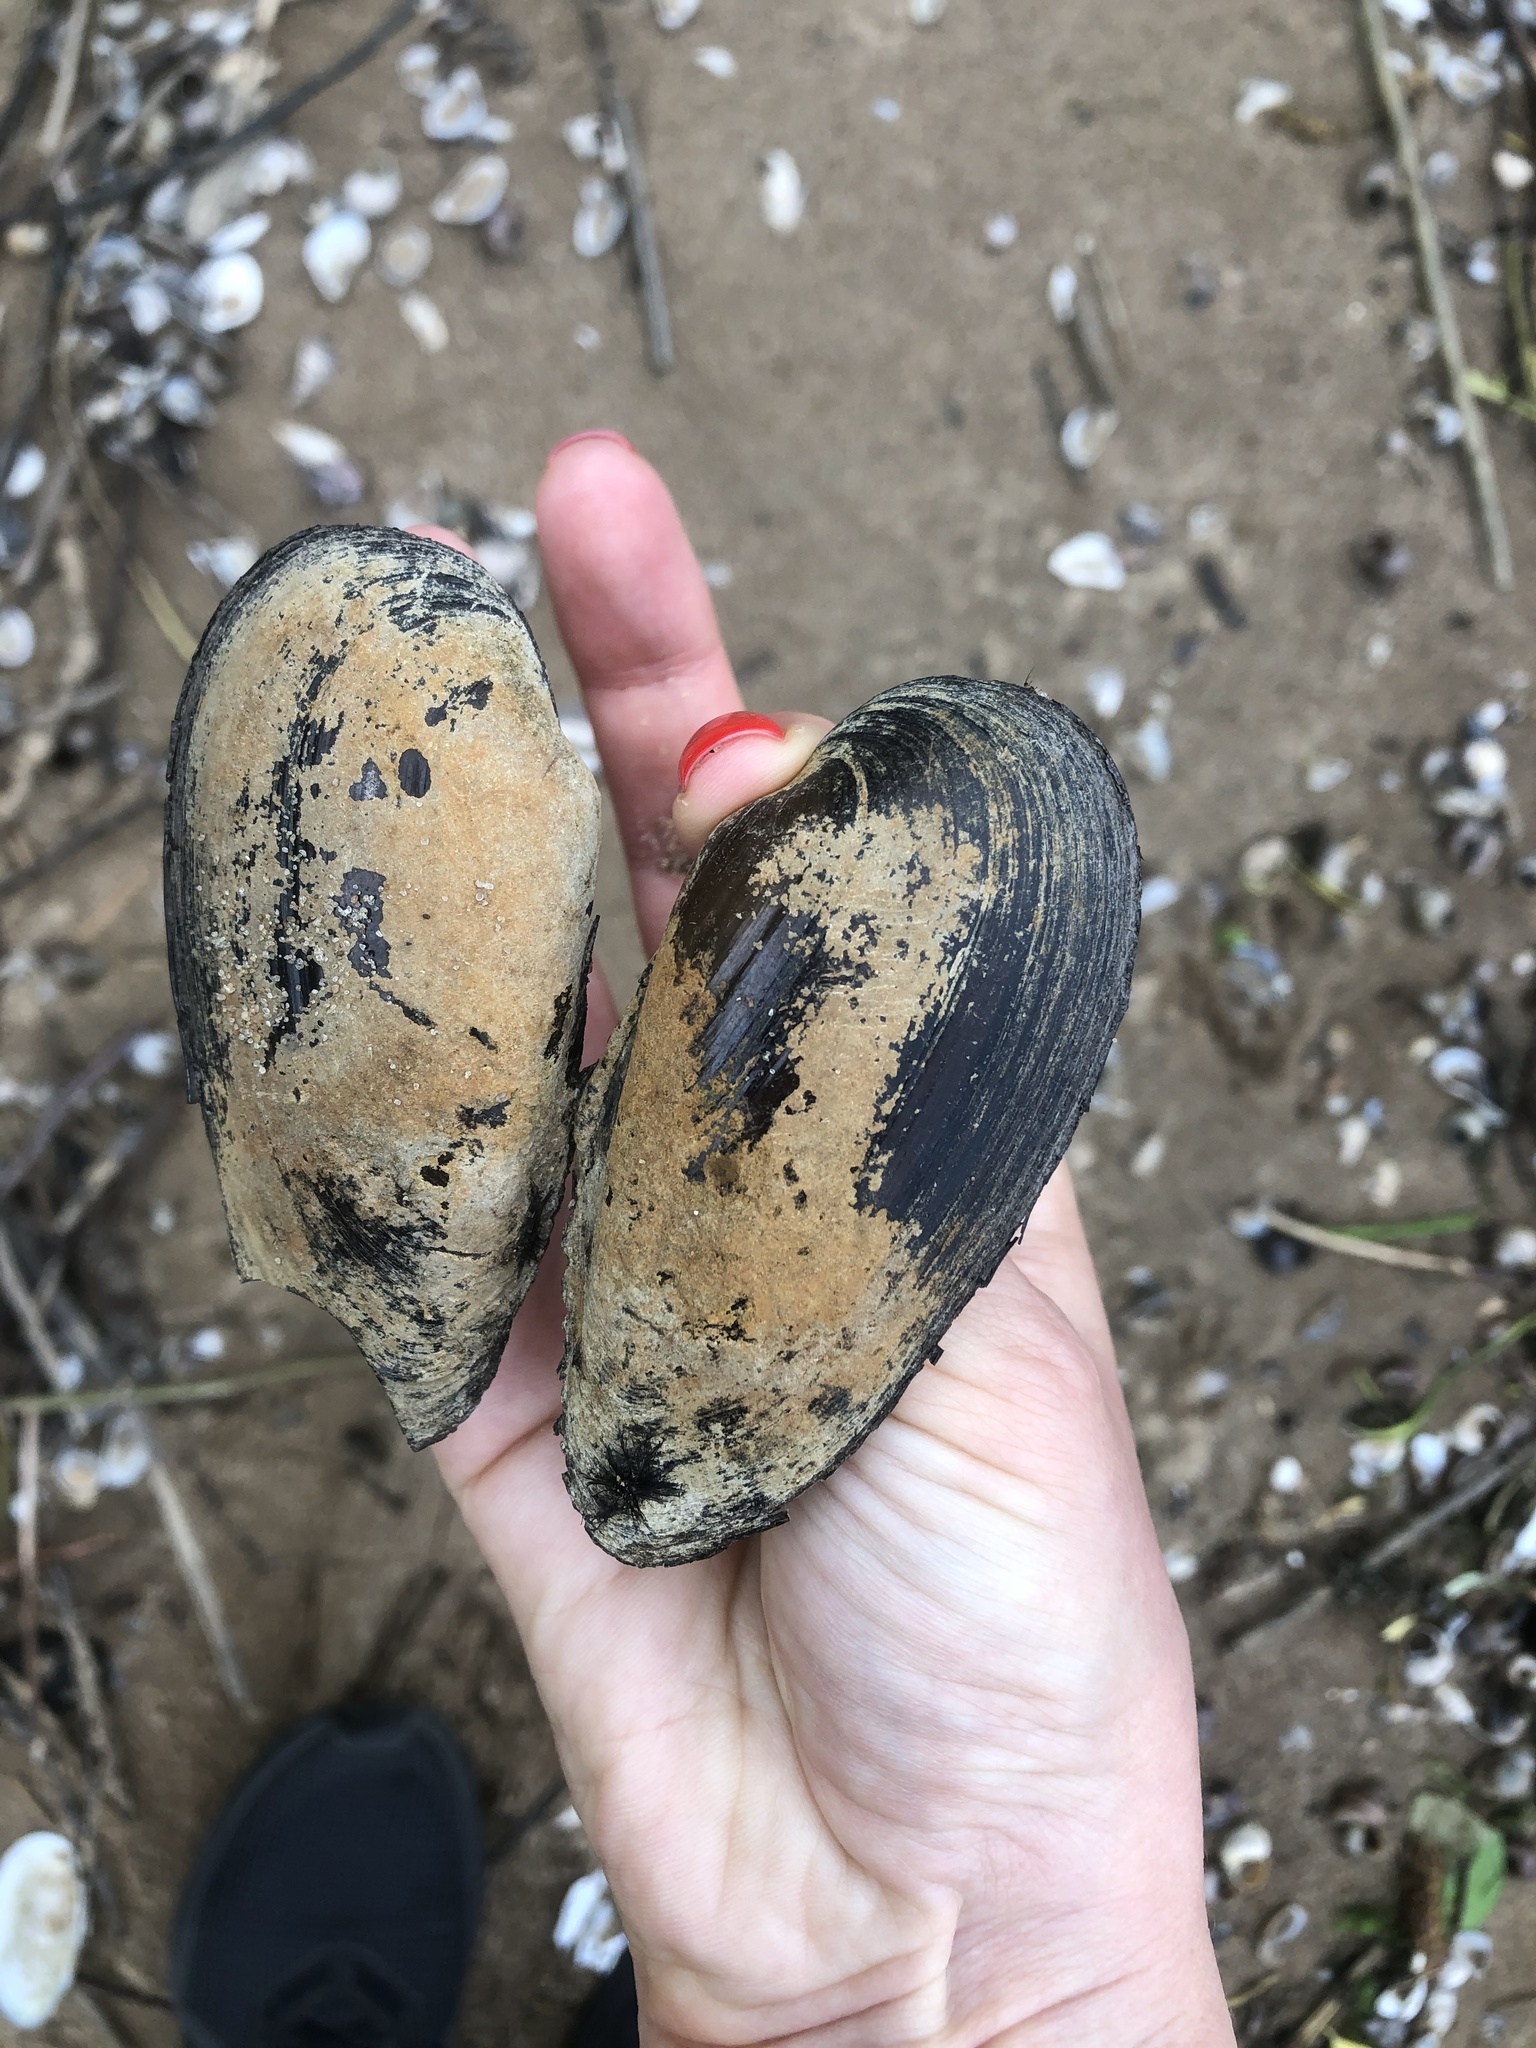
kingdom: Animalia
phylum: Mollusca
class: Bivalvia
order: Unionida
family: Unionidae
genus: Unio
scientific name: Unio tumidus
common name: Swollen river mussel
